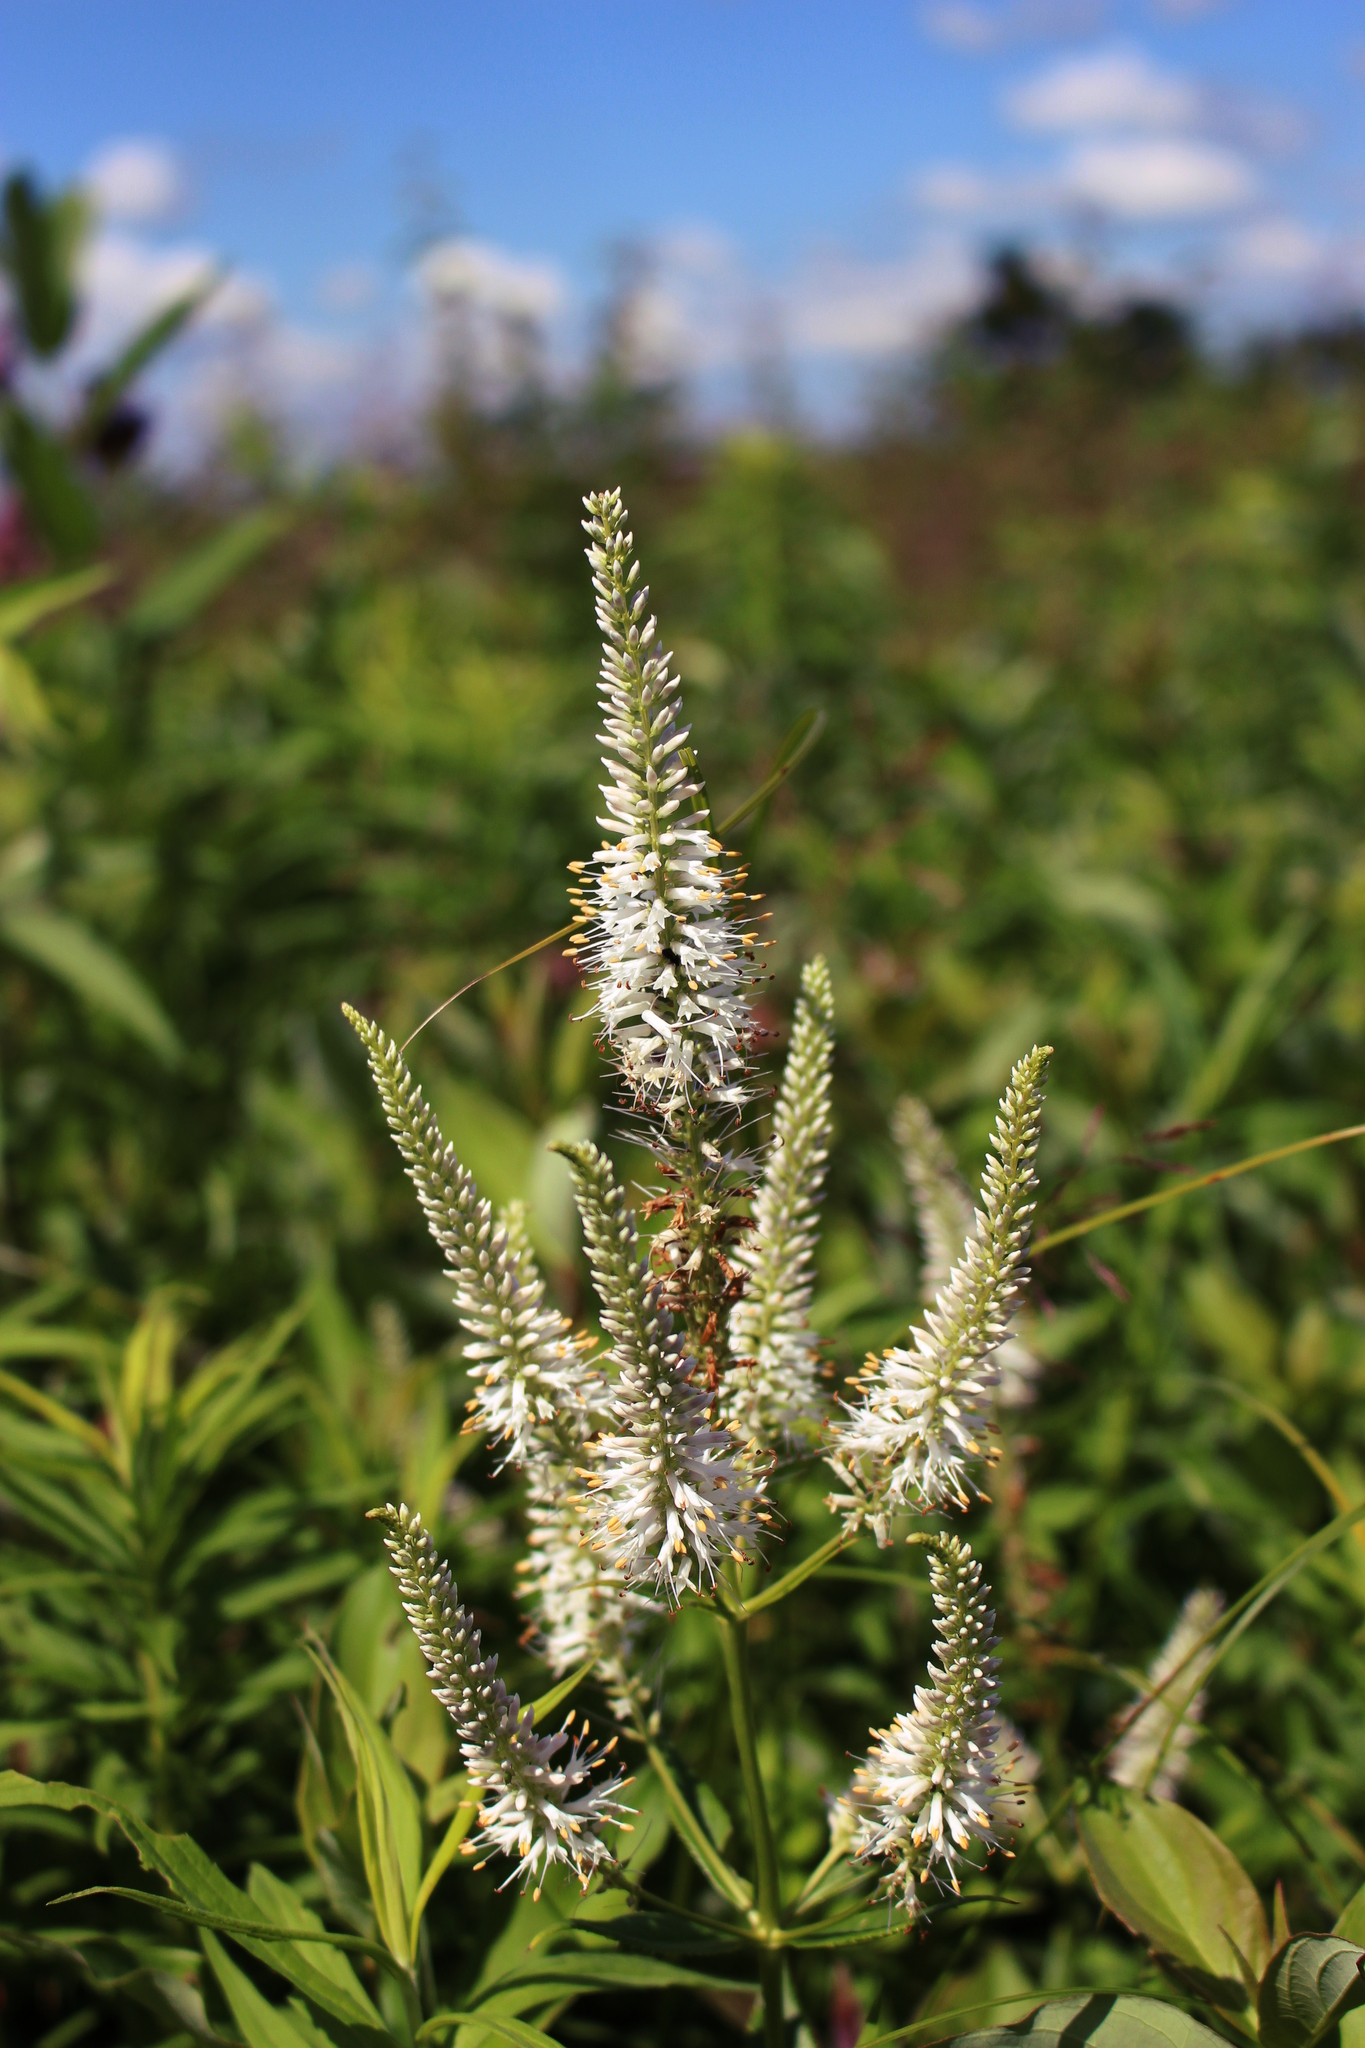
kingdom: Plantae
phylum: Tracheophyta
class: Magnoliopsida
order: Lamiales
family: Plantaginaceae
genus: Veronicastrum
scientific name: Veronicastrum virginicum
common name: Blackroot
